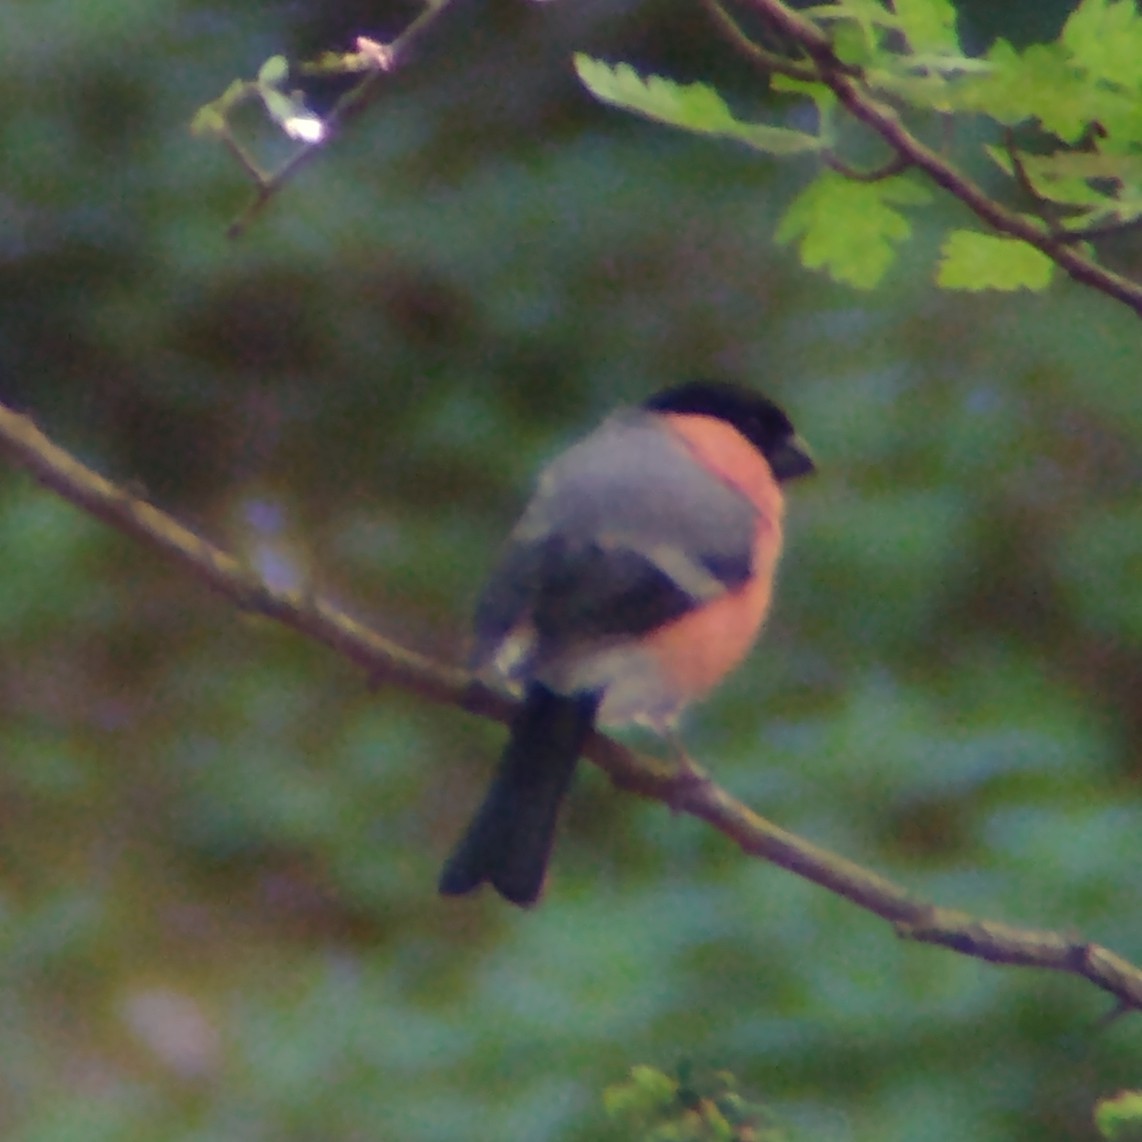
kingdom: Animalia
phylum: Chordata
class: Aves
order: Passeriformes
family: Fringillidae
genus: Pyrrhula
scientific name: Pyrrhula pyrrhula
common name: Eurasian bullfinch
